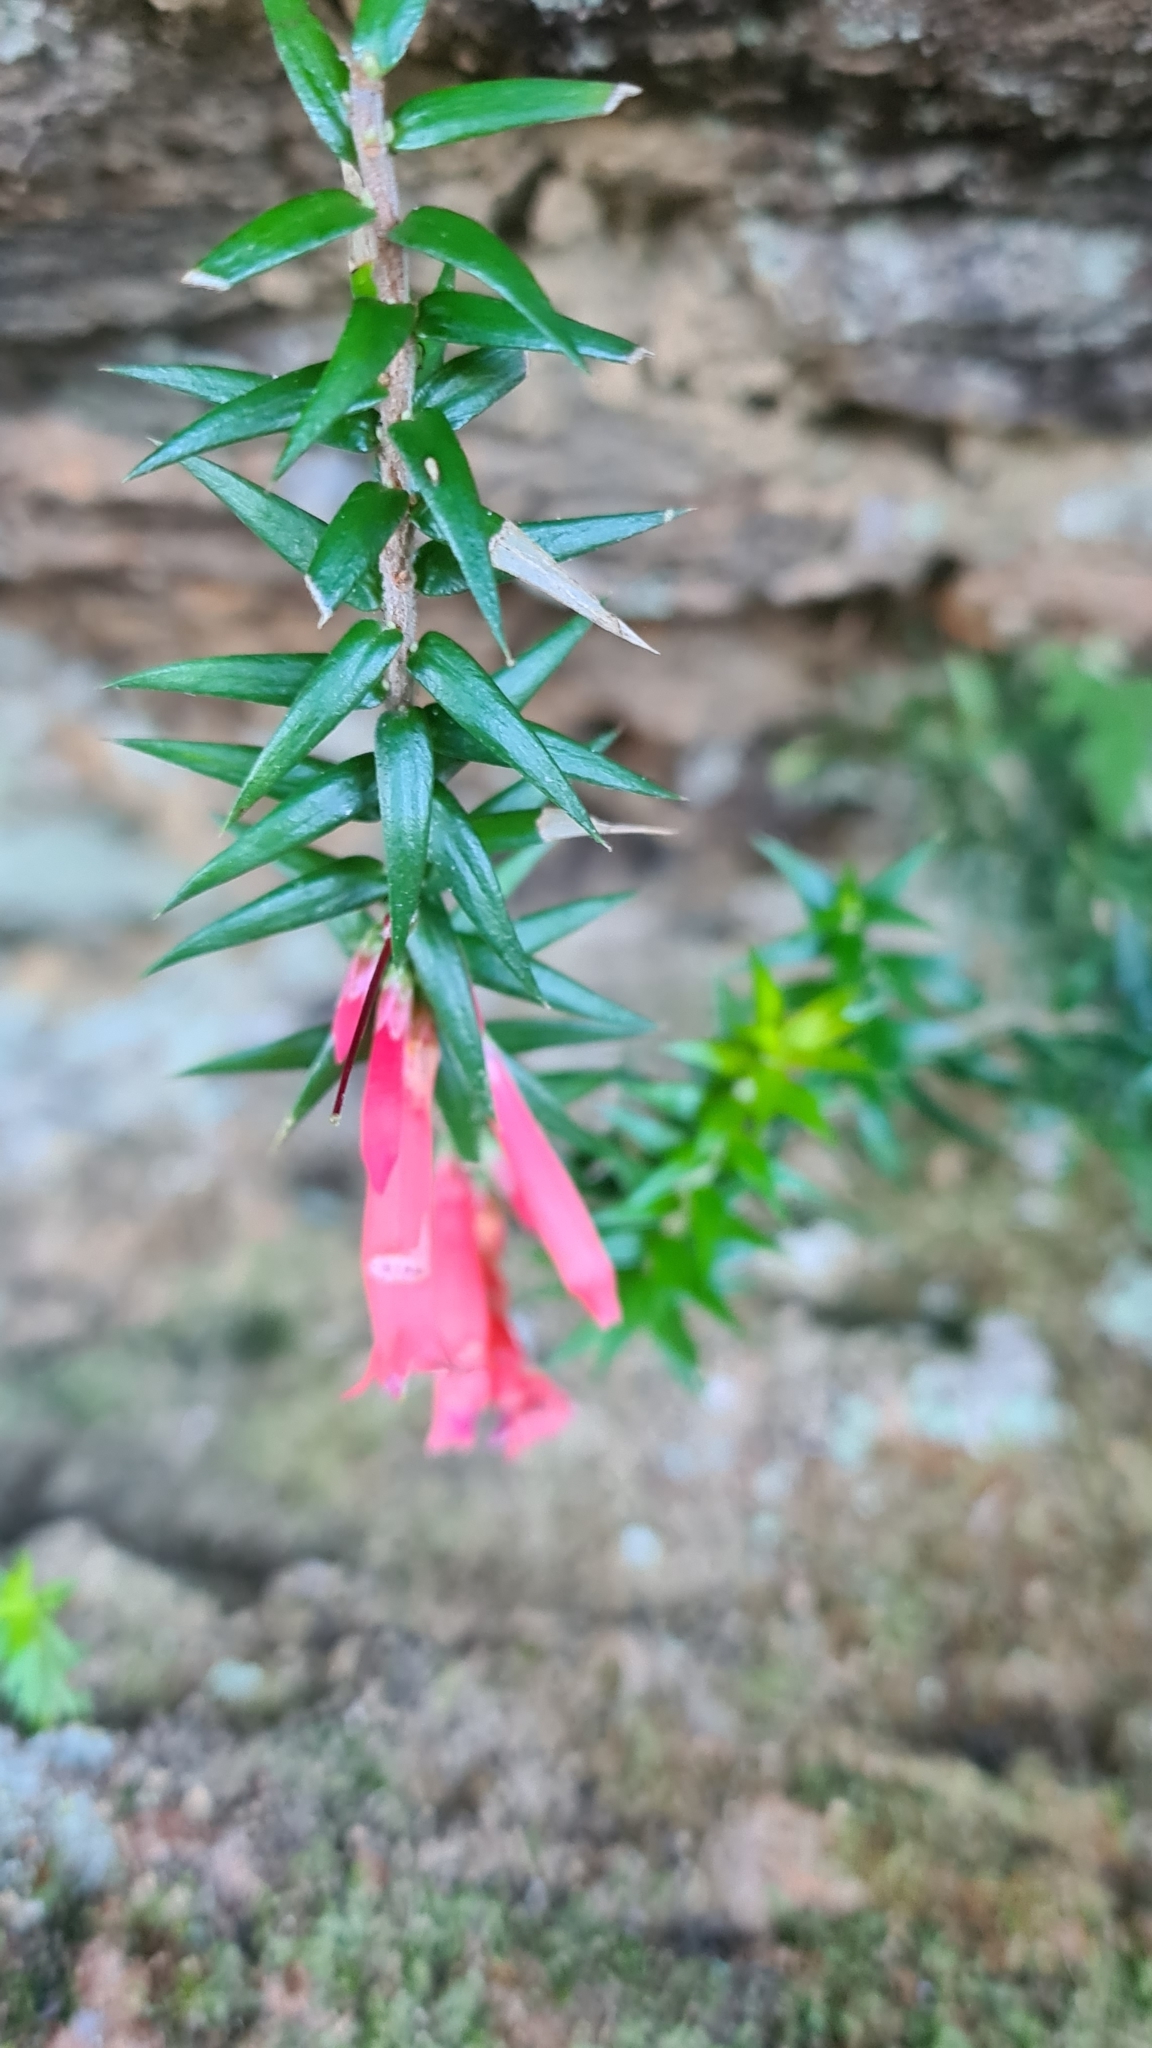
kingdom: Plantae
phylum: Tracheophyta
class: Magnoliopsida
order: Ericales
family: Ericaceae
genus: Epacris
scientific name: Epacris impressa
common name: Common-heath
